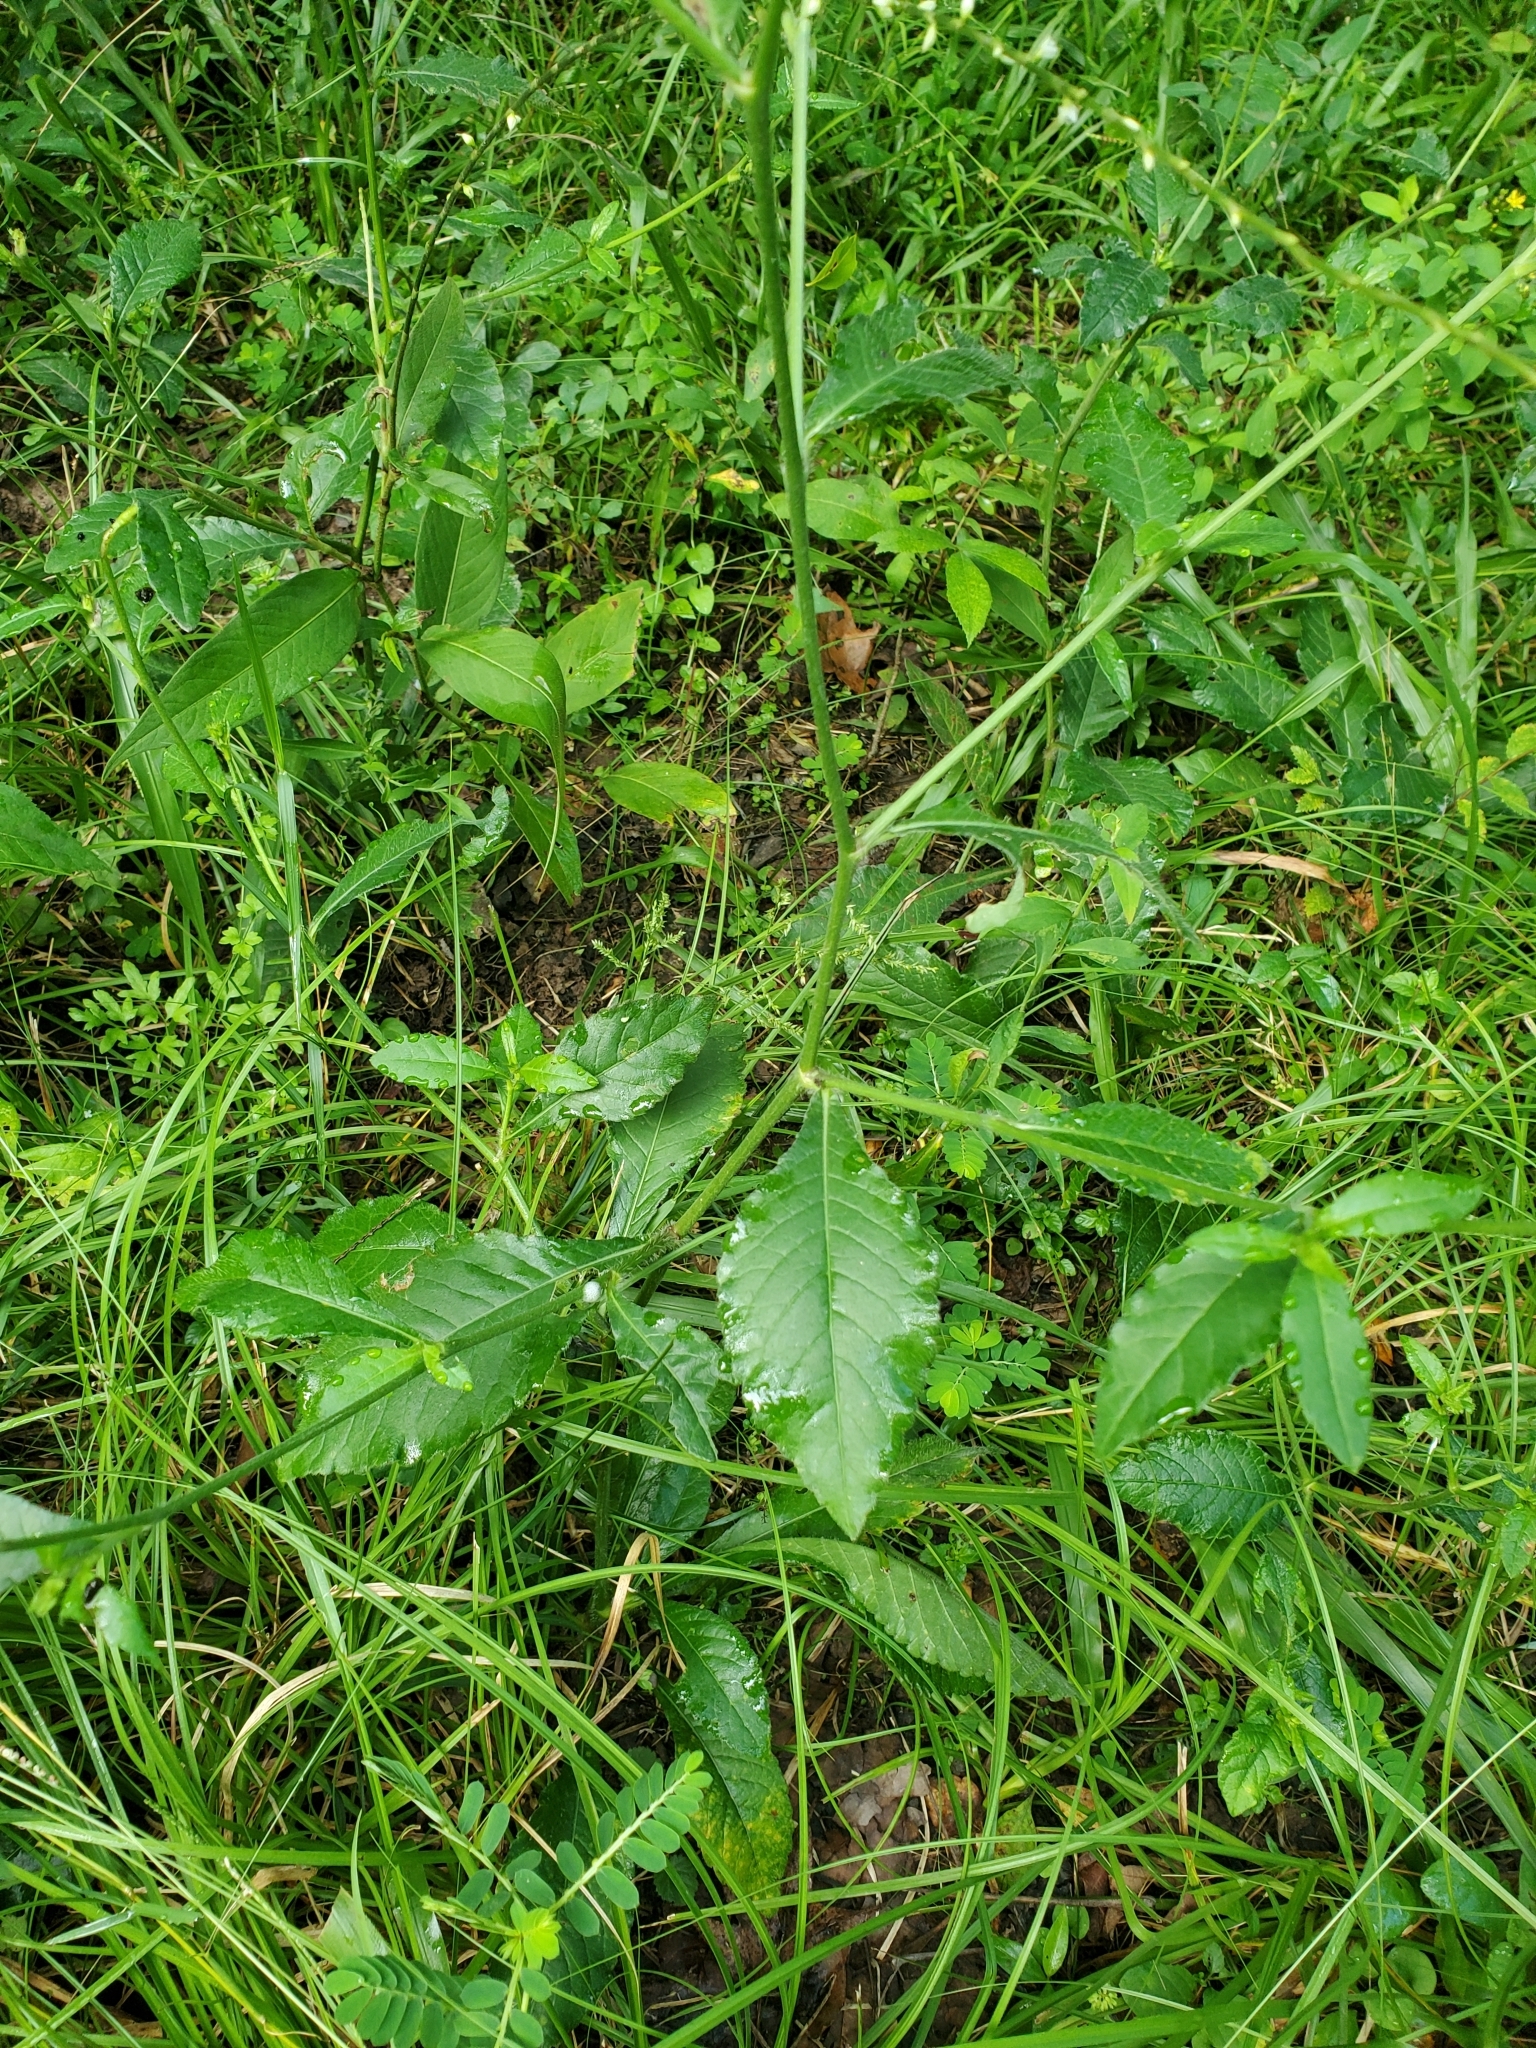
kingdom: Plantae
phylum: Tracheophyta
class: Magnoliopsida
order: Asterales
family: Asteraceae
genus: Elephantopus
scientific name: Elephantopus carolinianus
